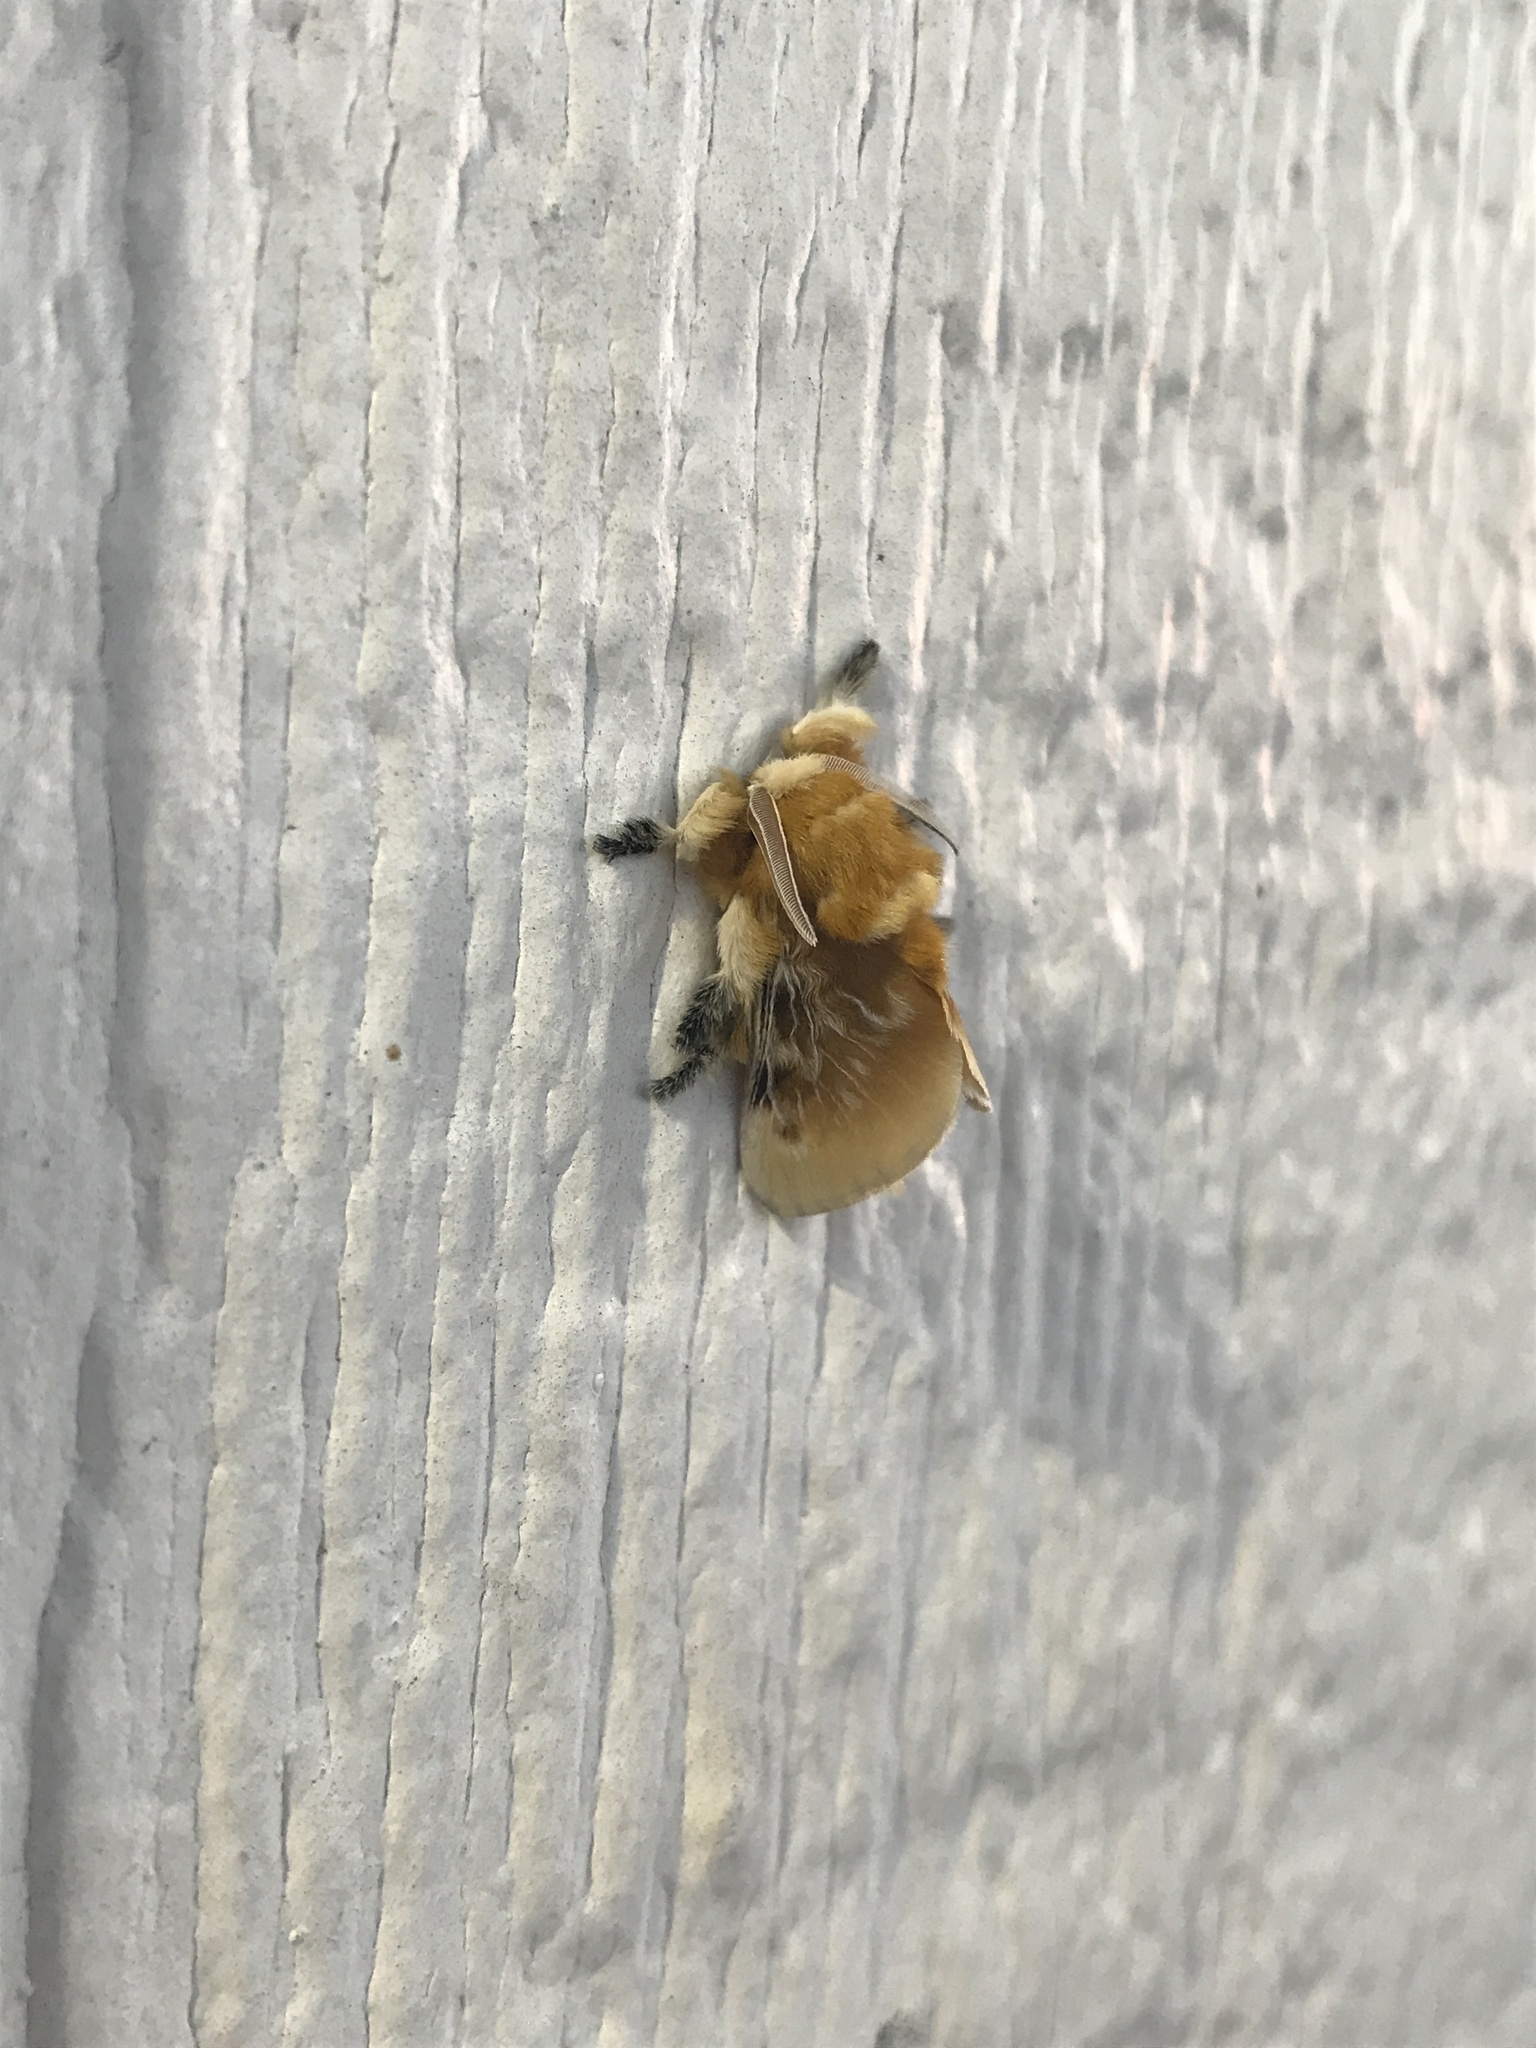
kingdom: Animalia
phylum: Arthropoda
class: Insecta
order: Lepidoptera
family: Megalopygidae
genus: Megalopyge
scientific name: Megalopyge opercularis
